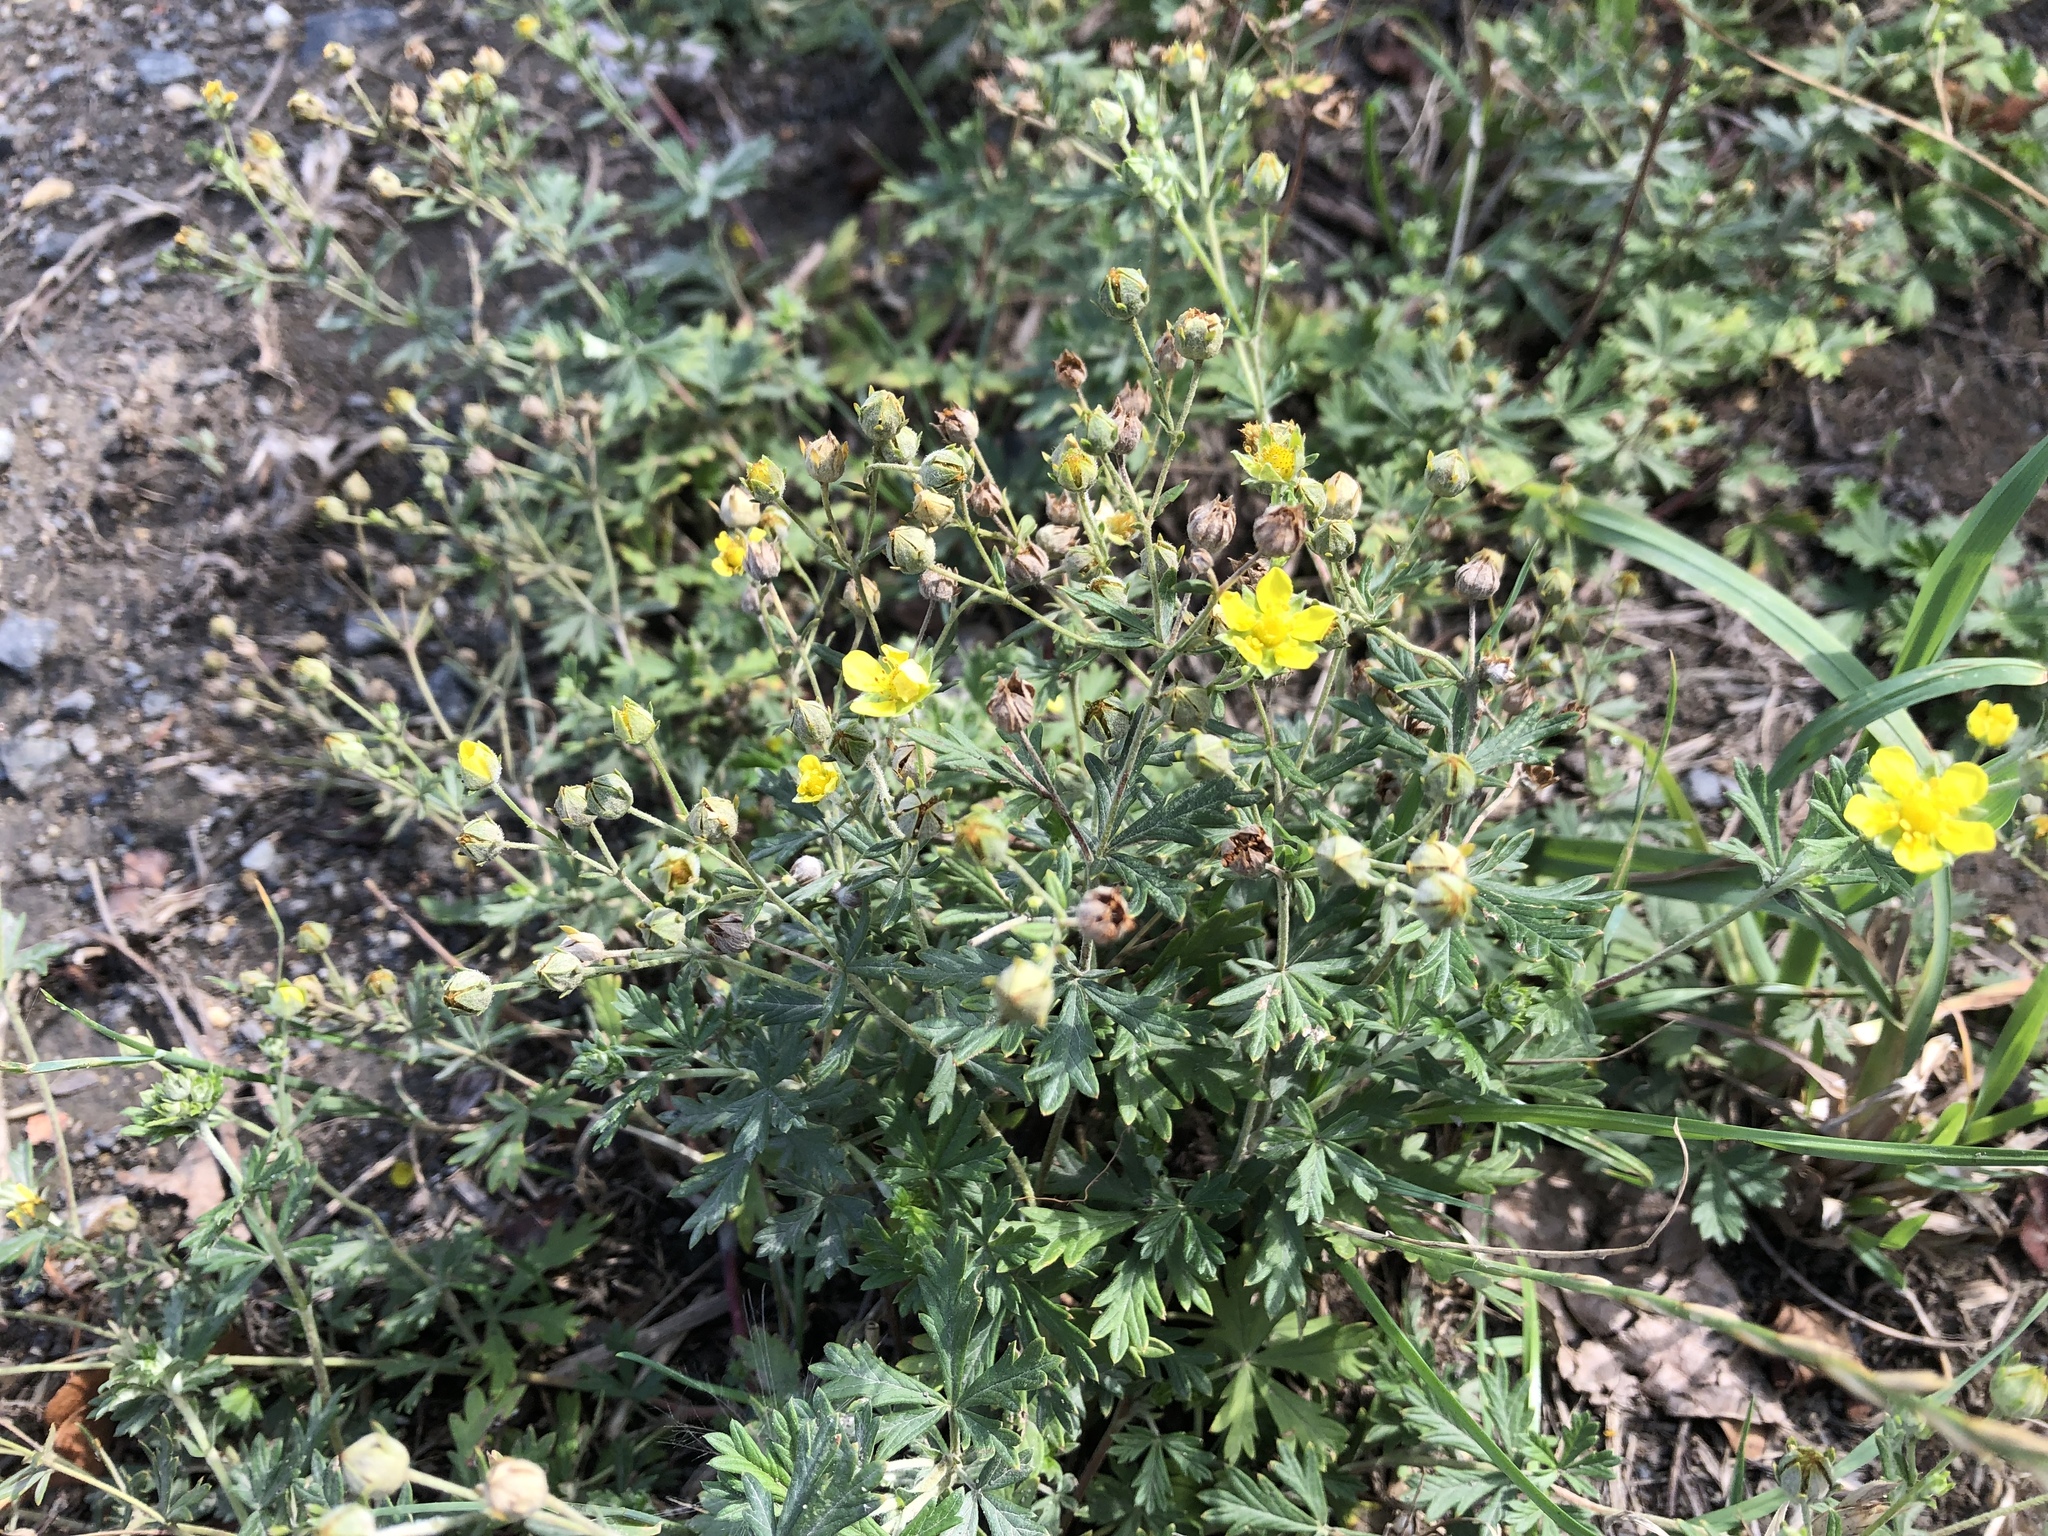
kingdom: Plantae
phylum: Tracheophyta
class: Magnoliopsida
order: Rosales
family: Rosaceae
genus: Potentilla
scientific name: Potentilla argentea
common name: Hoary cinquefoil
